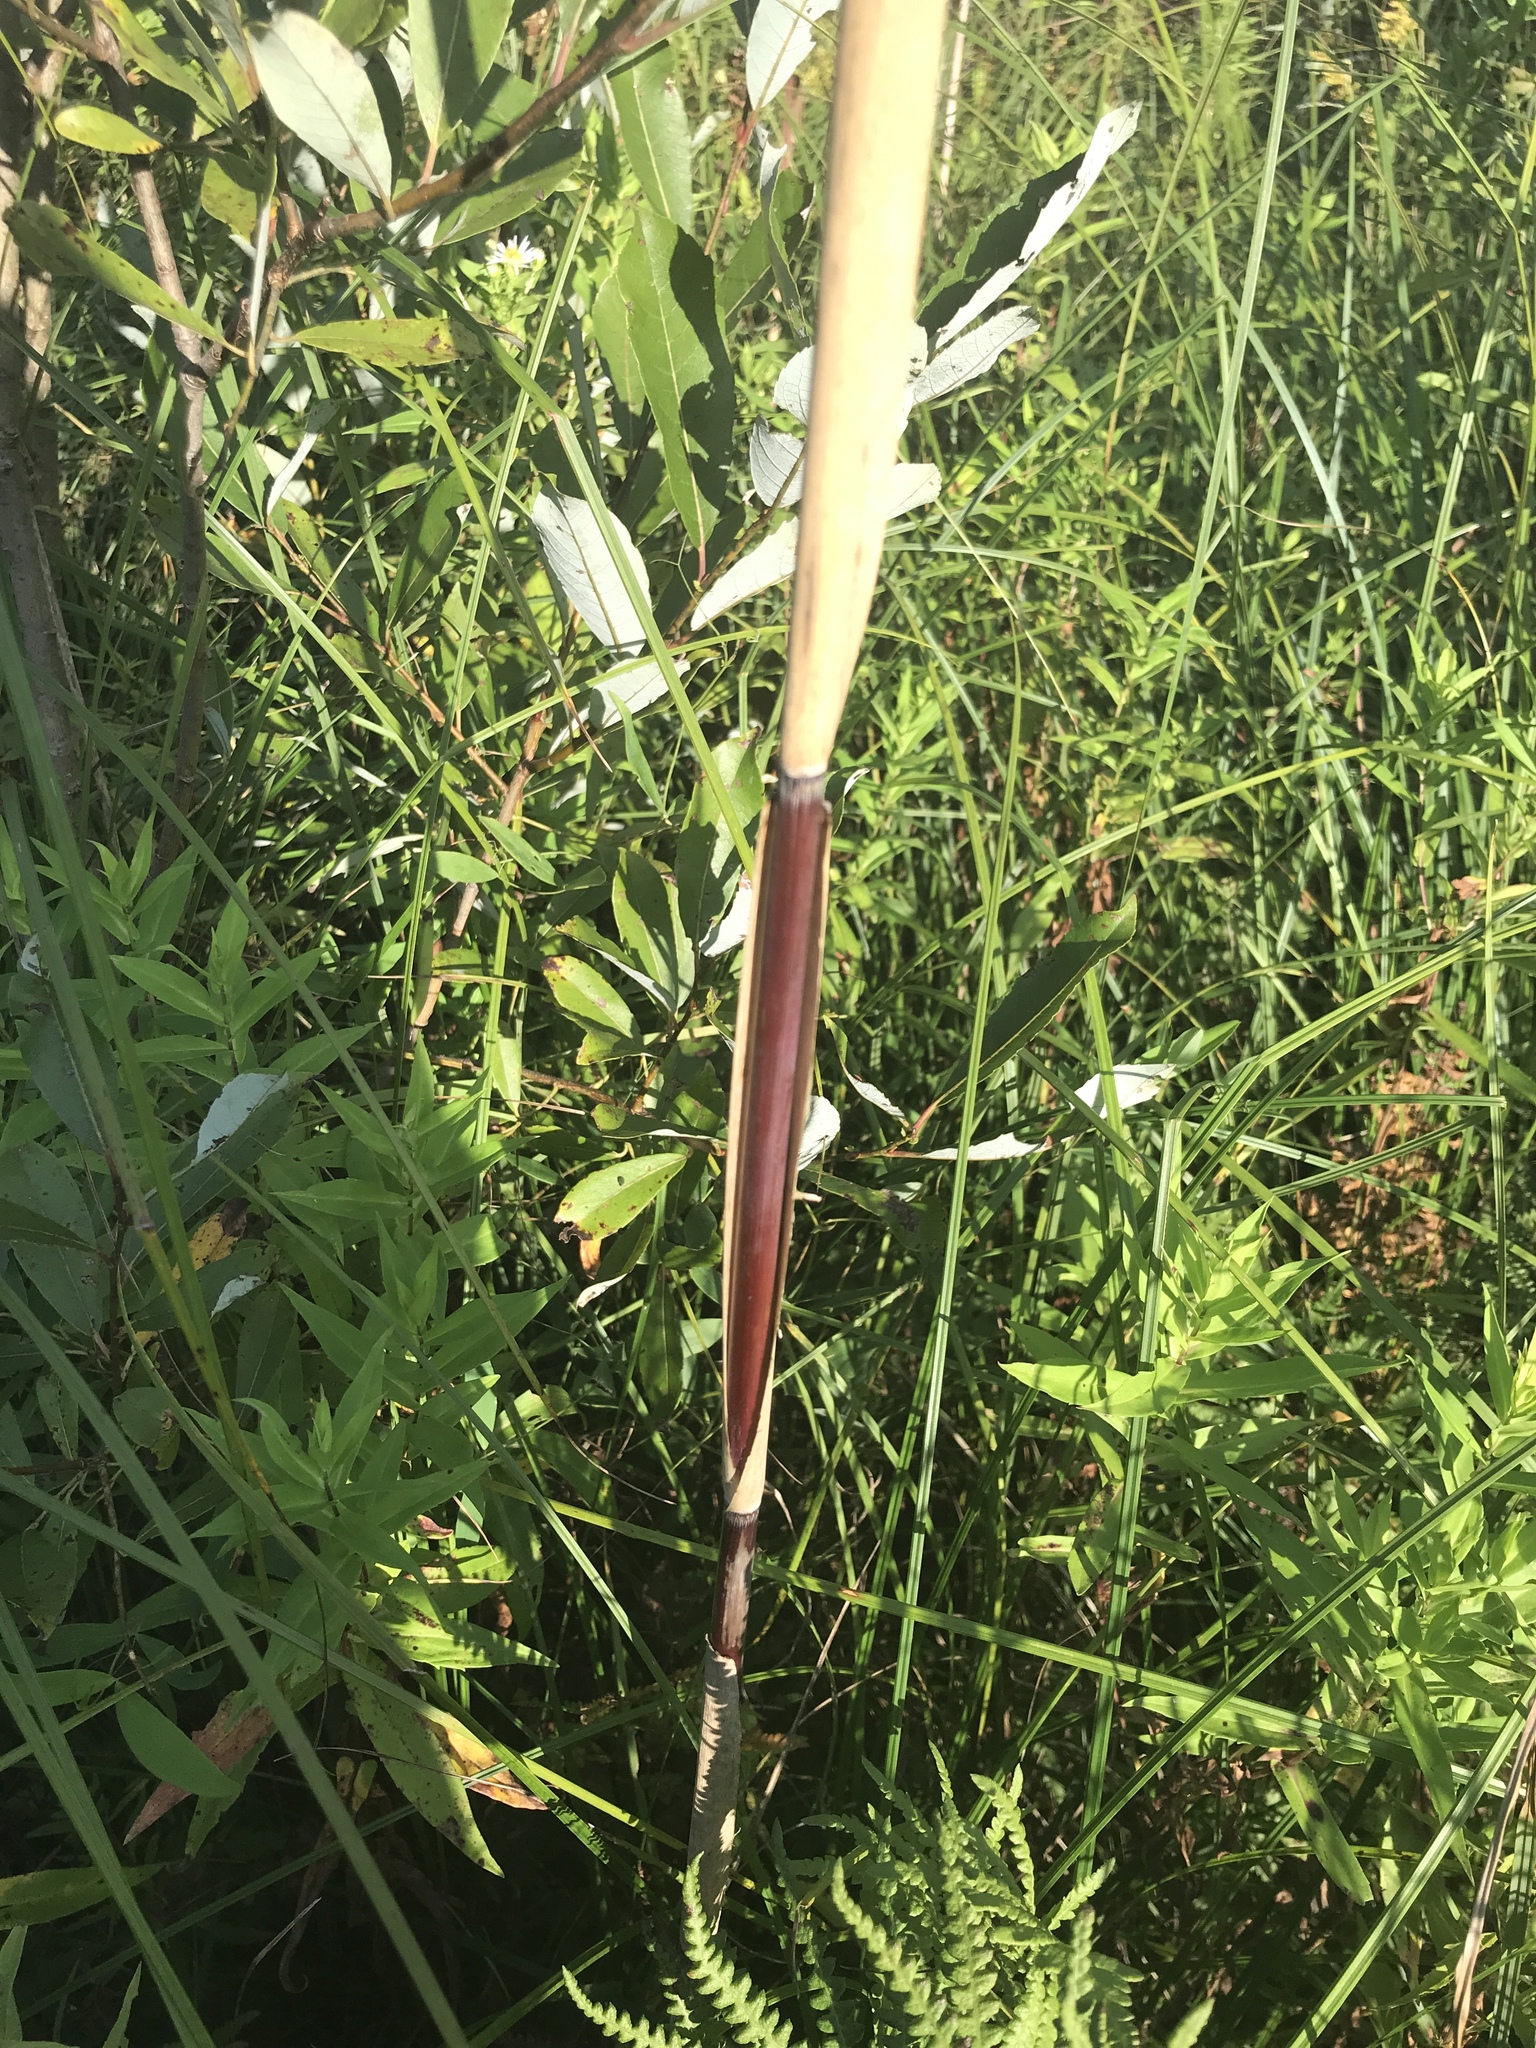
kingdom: Plantae
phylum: Tracheophyta
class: Liliopsida
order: Poales
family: Poaceae
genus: Phragmites
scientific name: Phragmites australis
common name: Common reed
